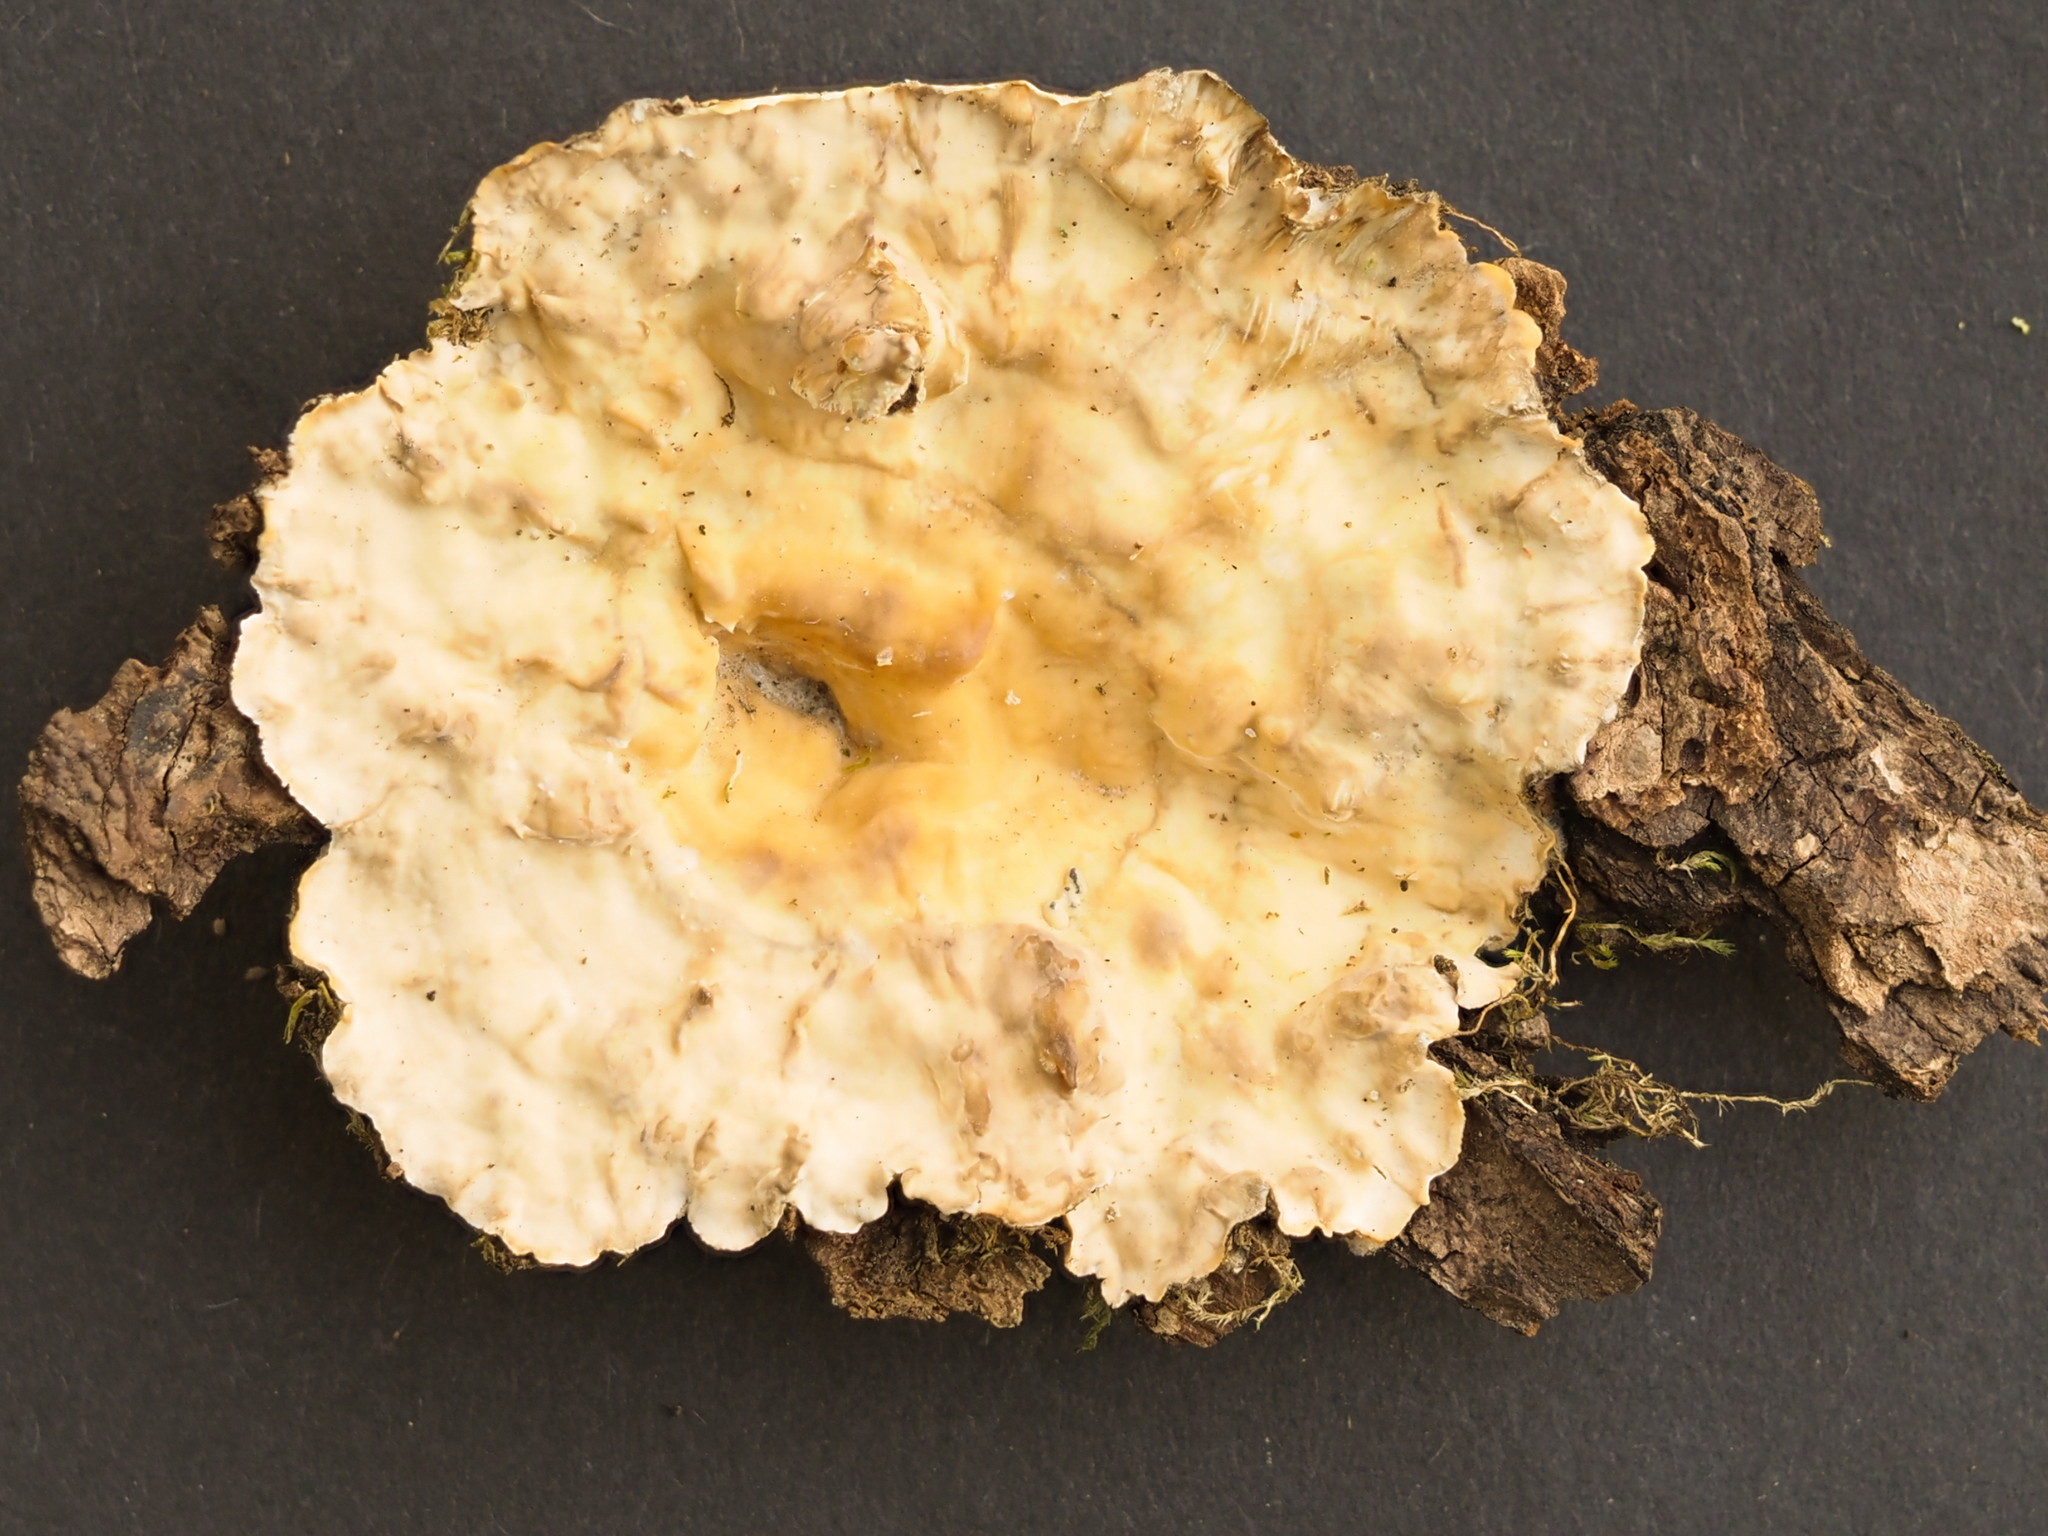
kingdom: Fungi
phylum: Basidiomycota
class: Agaricomycetes
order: Russulales
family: Stereaceae
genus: Stereum
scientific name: Stereum sanguinolentum
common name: Bleeding conifer crust
